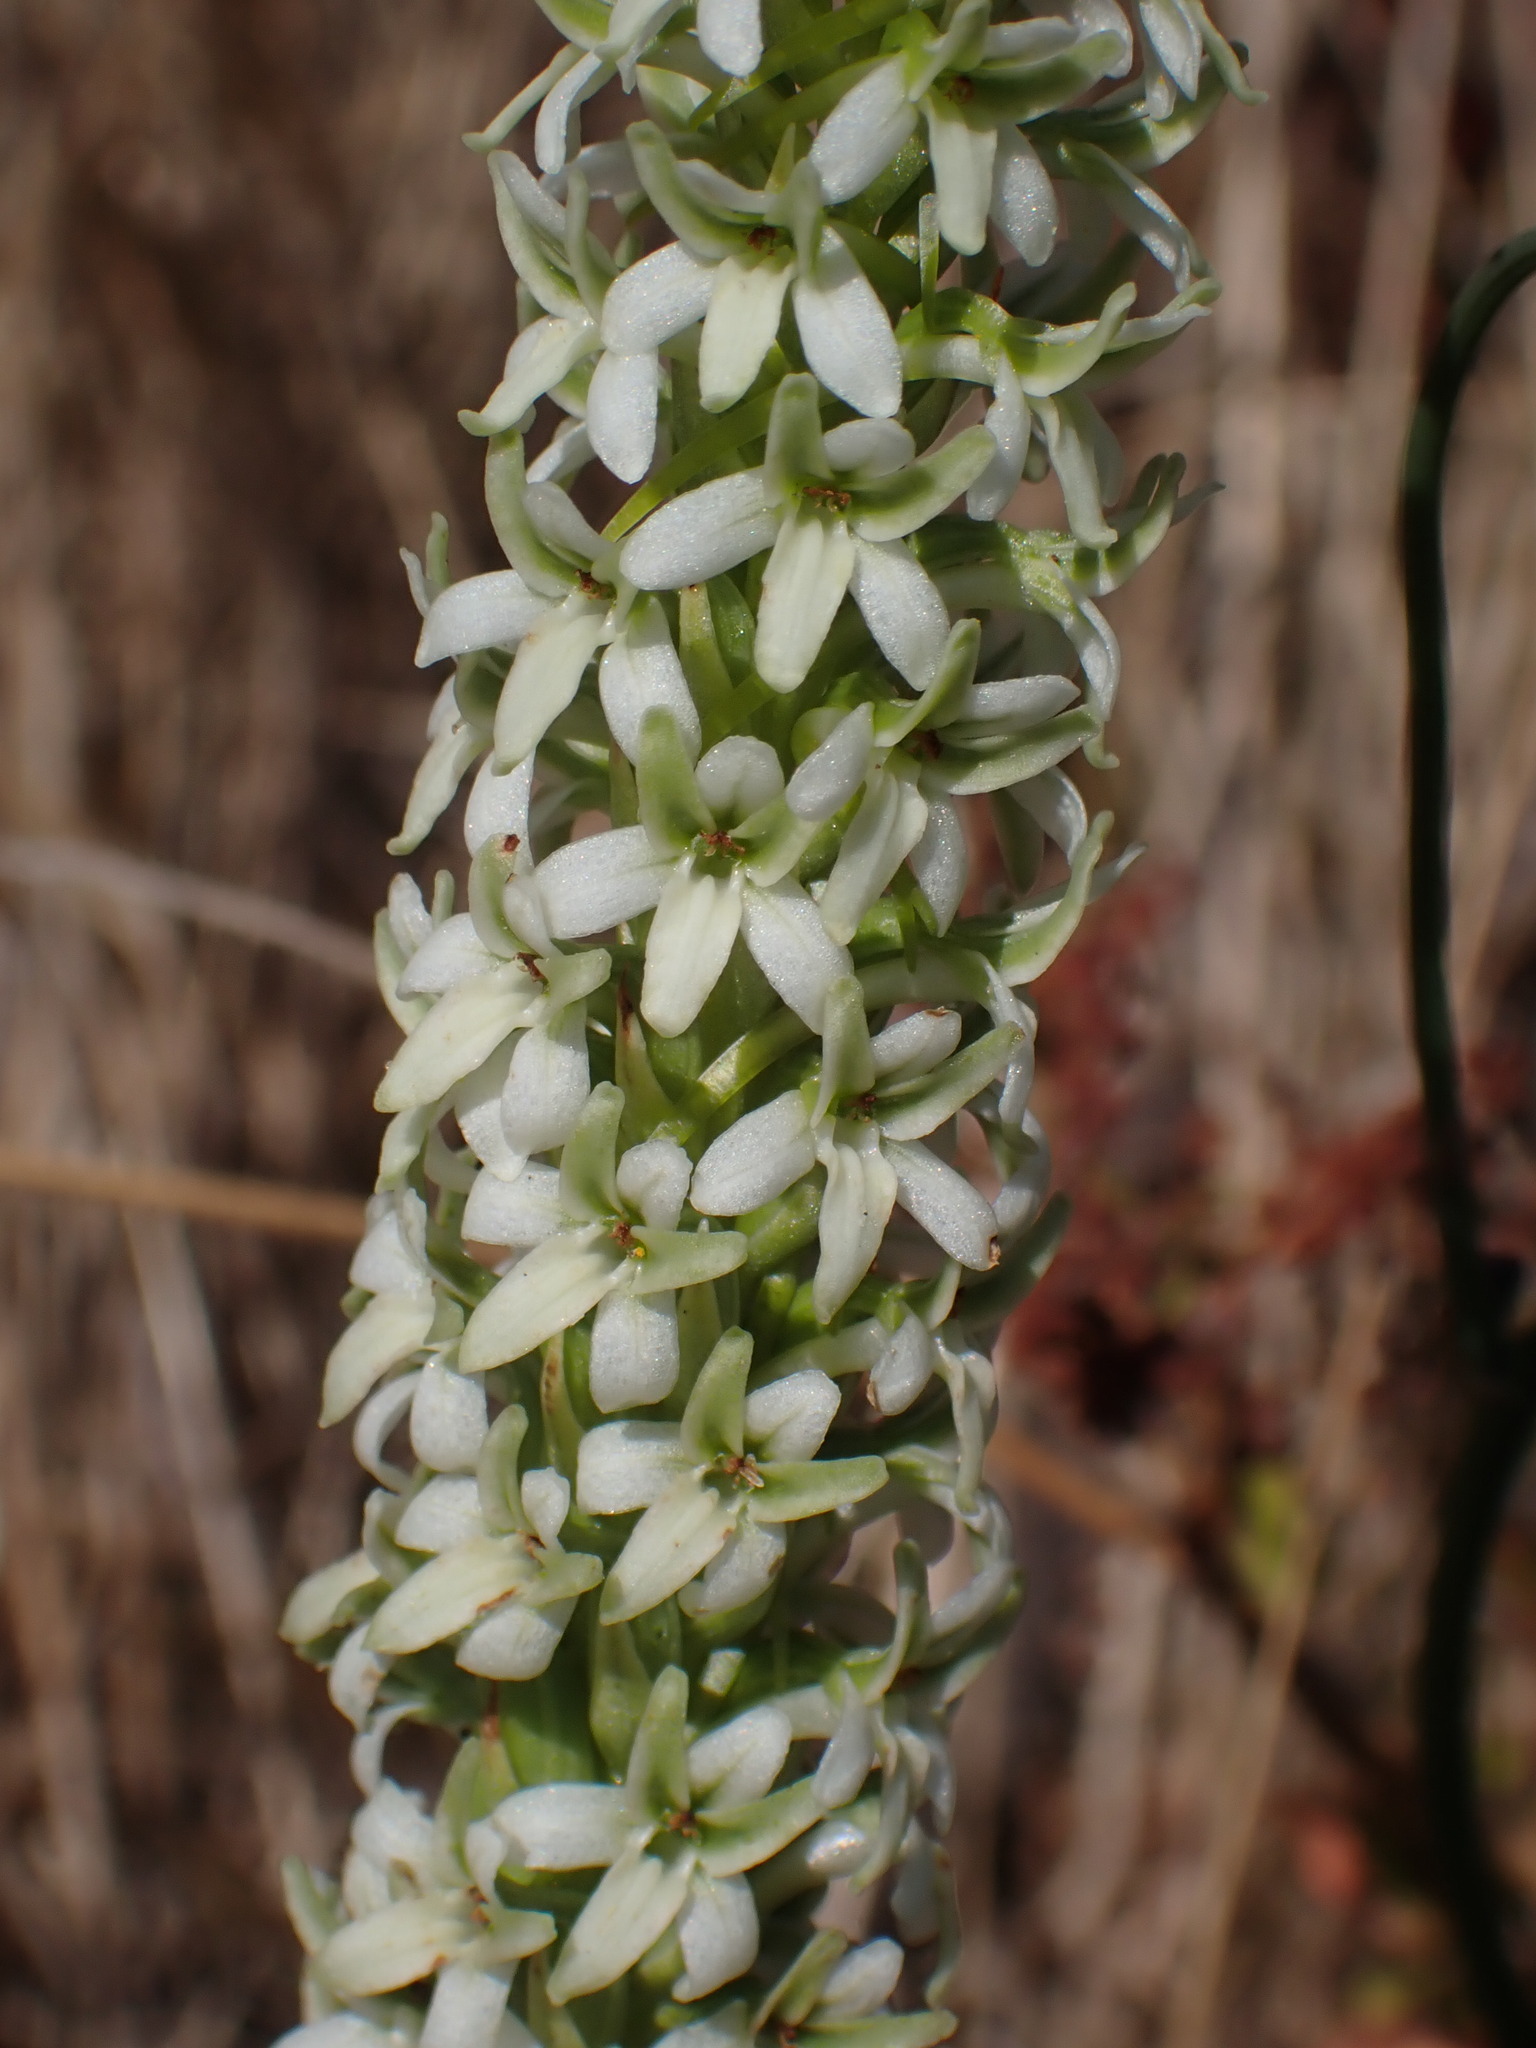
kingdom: Plantae
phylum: Tracheophyta
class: Liliopsida
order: Asparagales
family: Orchidaceae
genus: Platanthera
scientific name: Platanthera elegans
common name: Coast piperia
